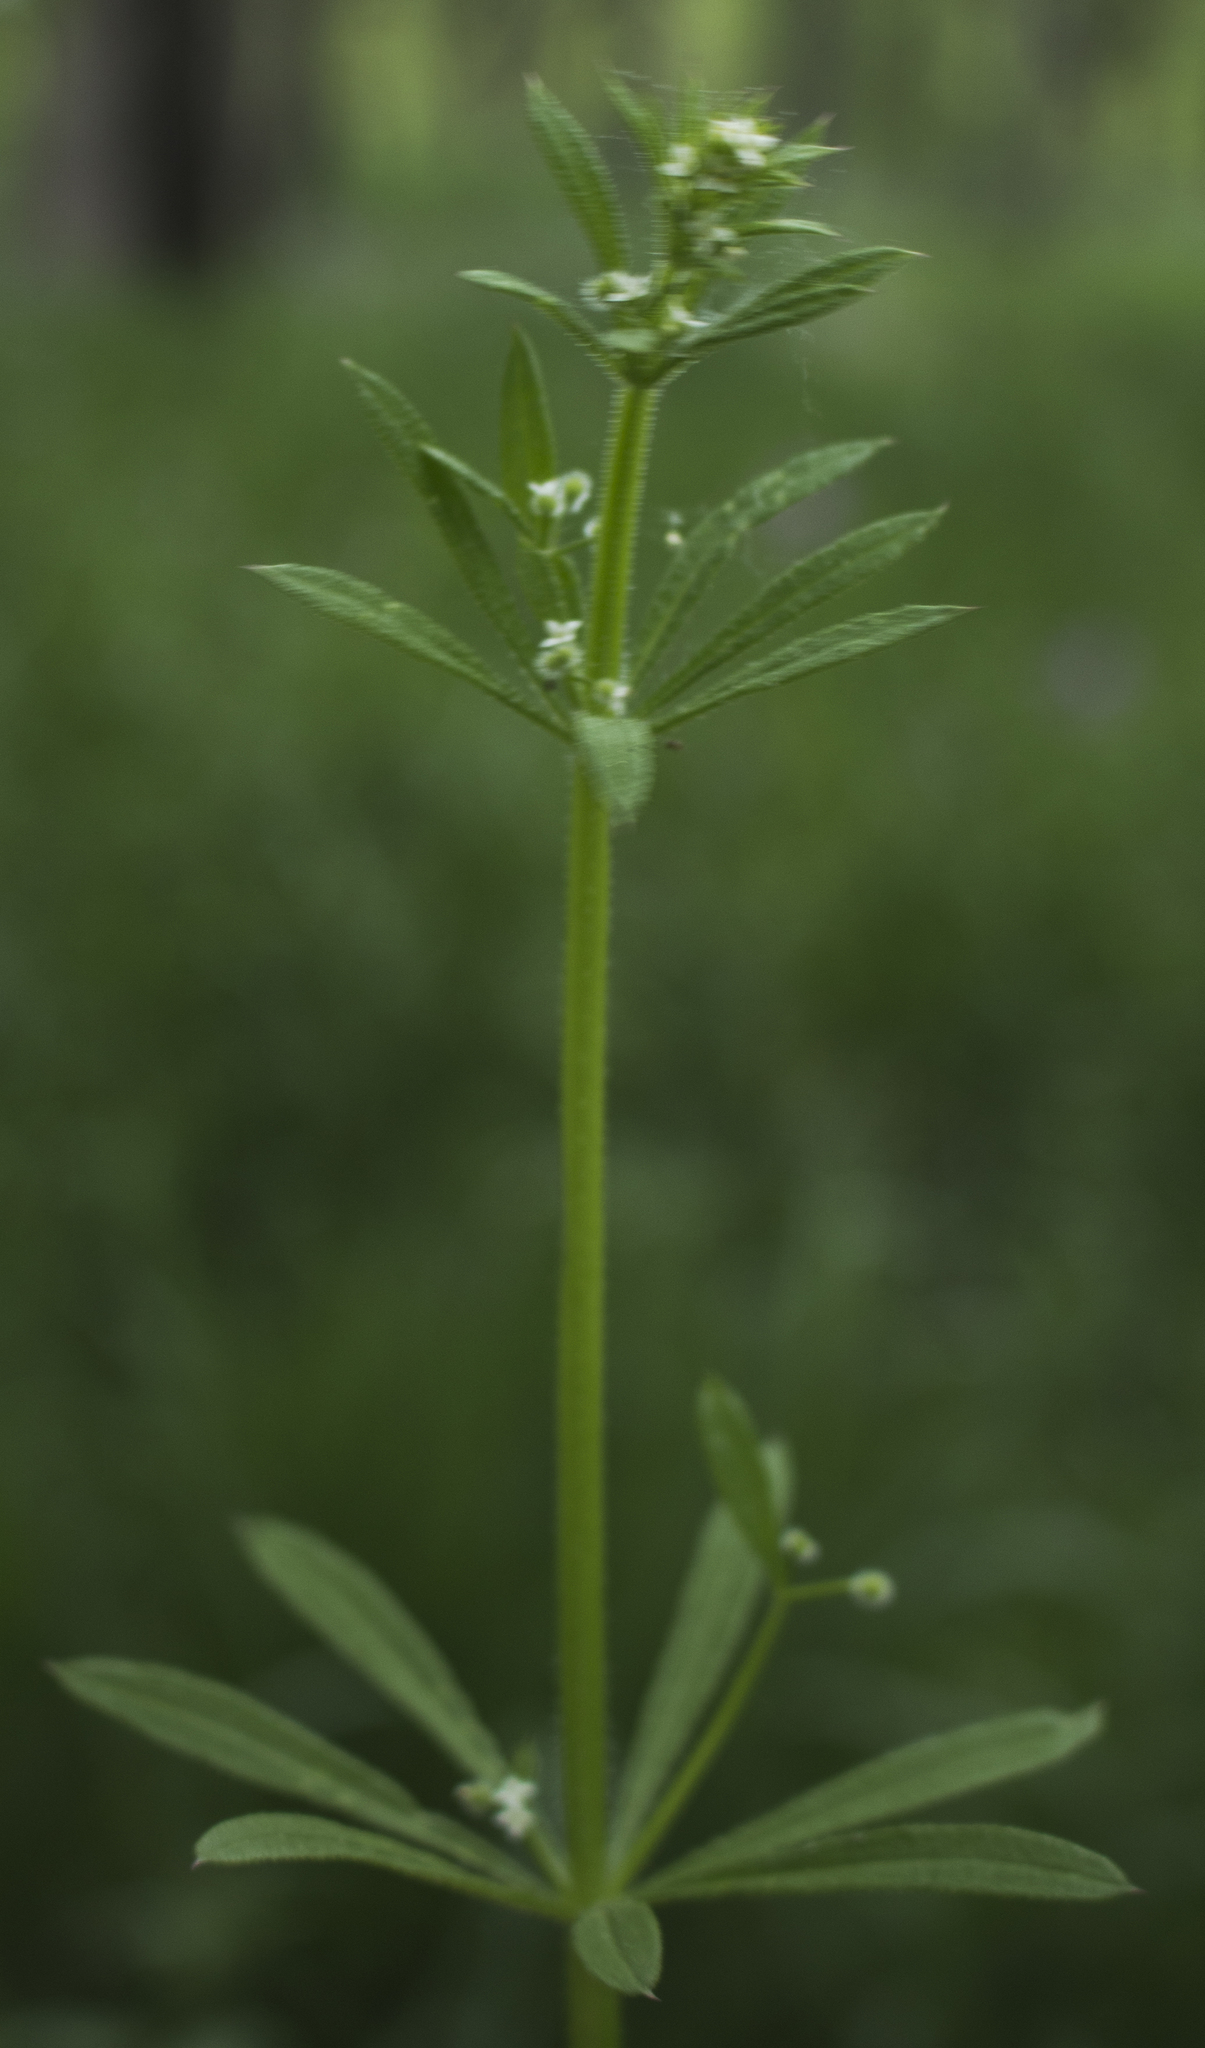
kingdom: Plantae
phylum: Tracheophyta
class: Magnoliopsida
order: Gentianales
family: Rubiaceae
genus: Galium
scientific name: Galium aparine
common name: Cleavers
